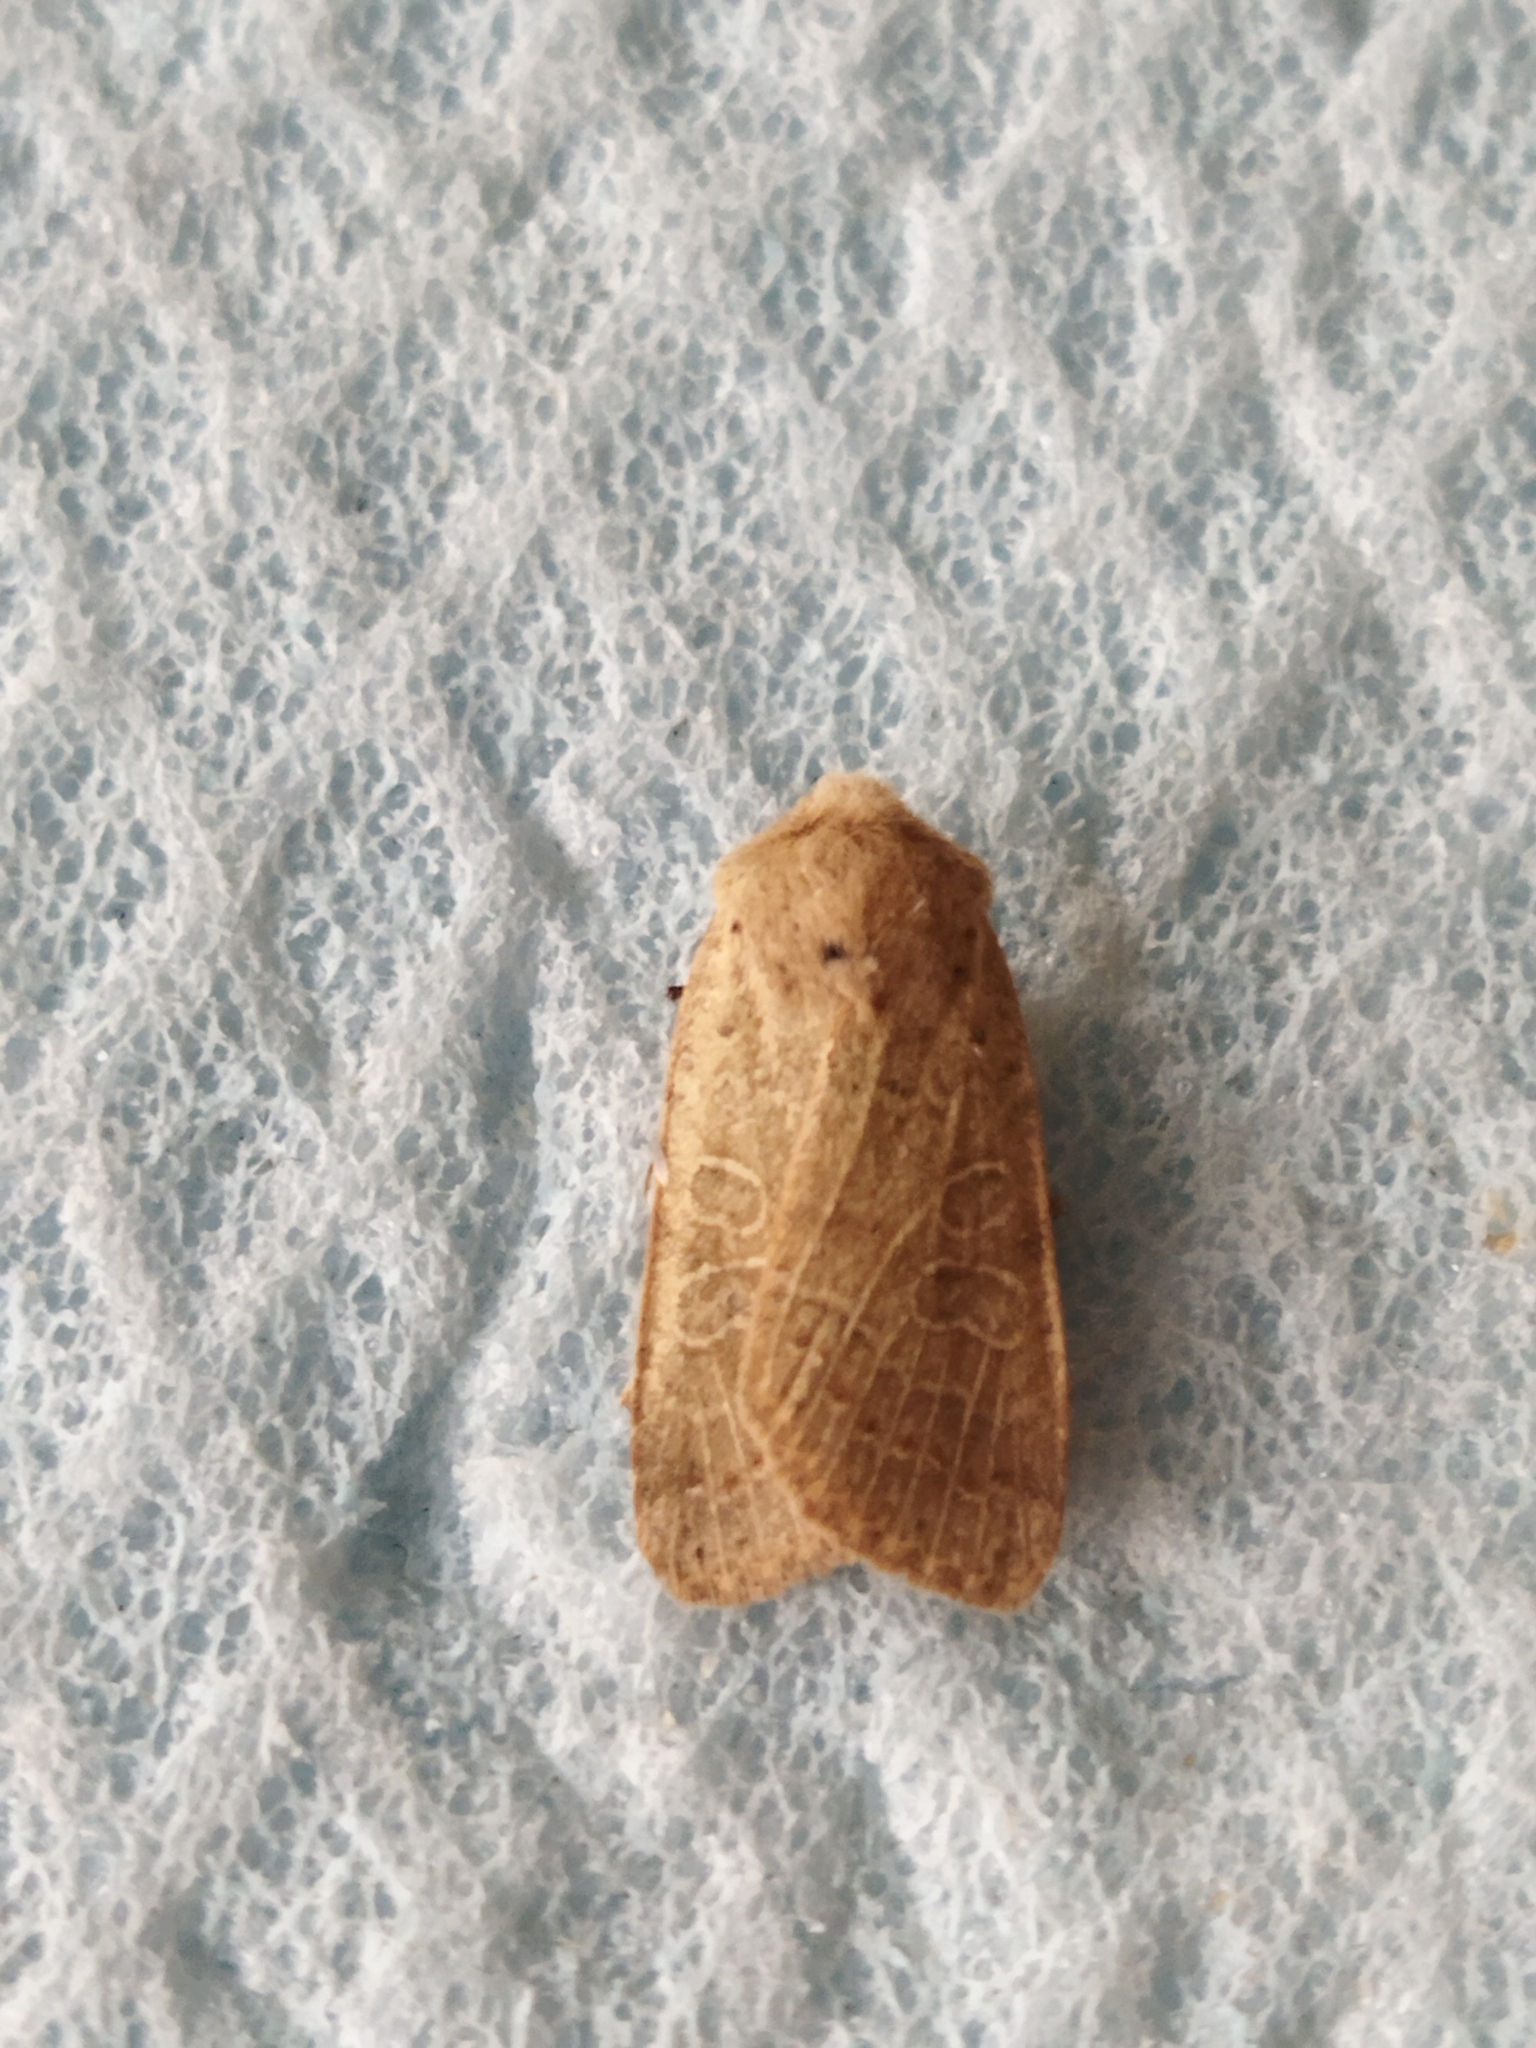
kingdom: Animalia
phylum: Arthropoda
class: Insecta
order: Lepidoptera
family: Noctuidae
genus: Agrochola
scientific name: Agrochola humilis
